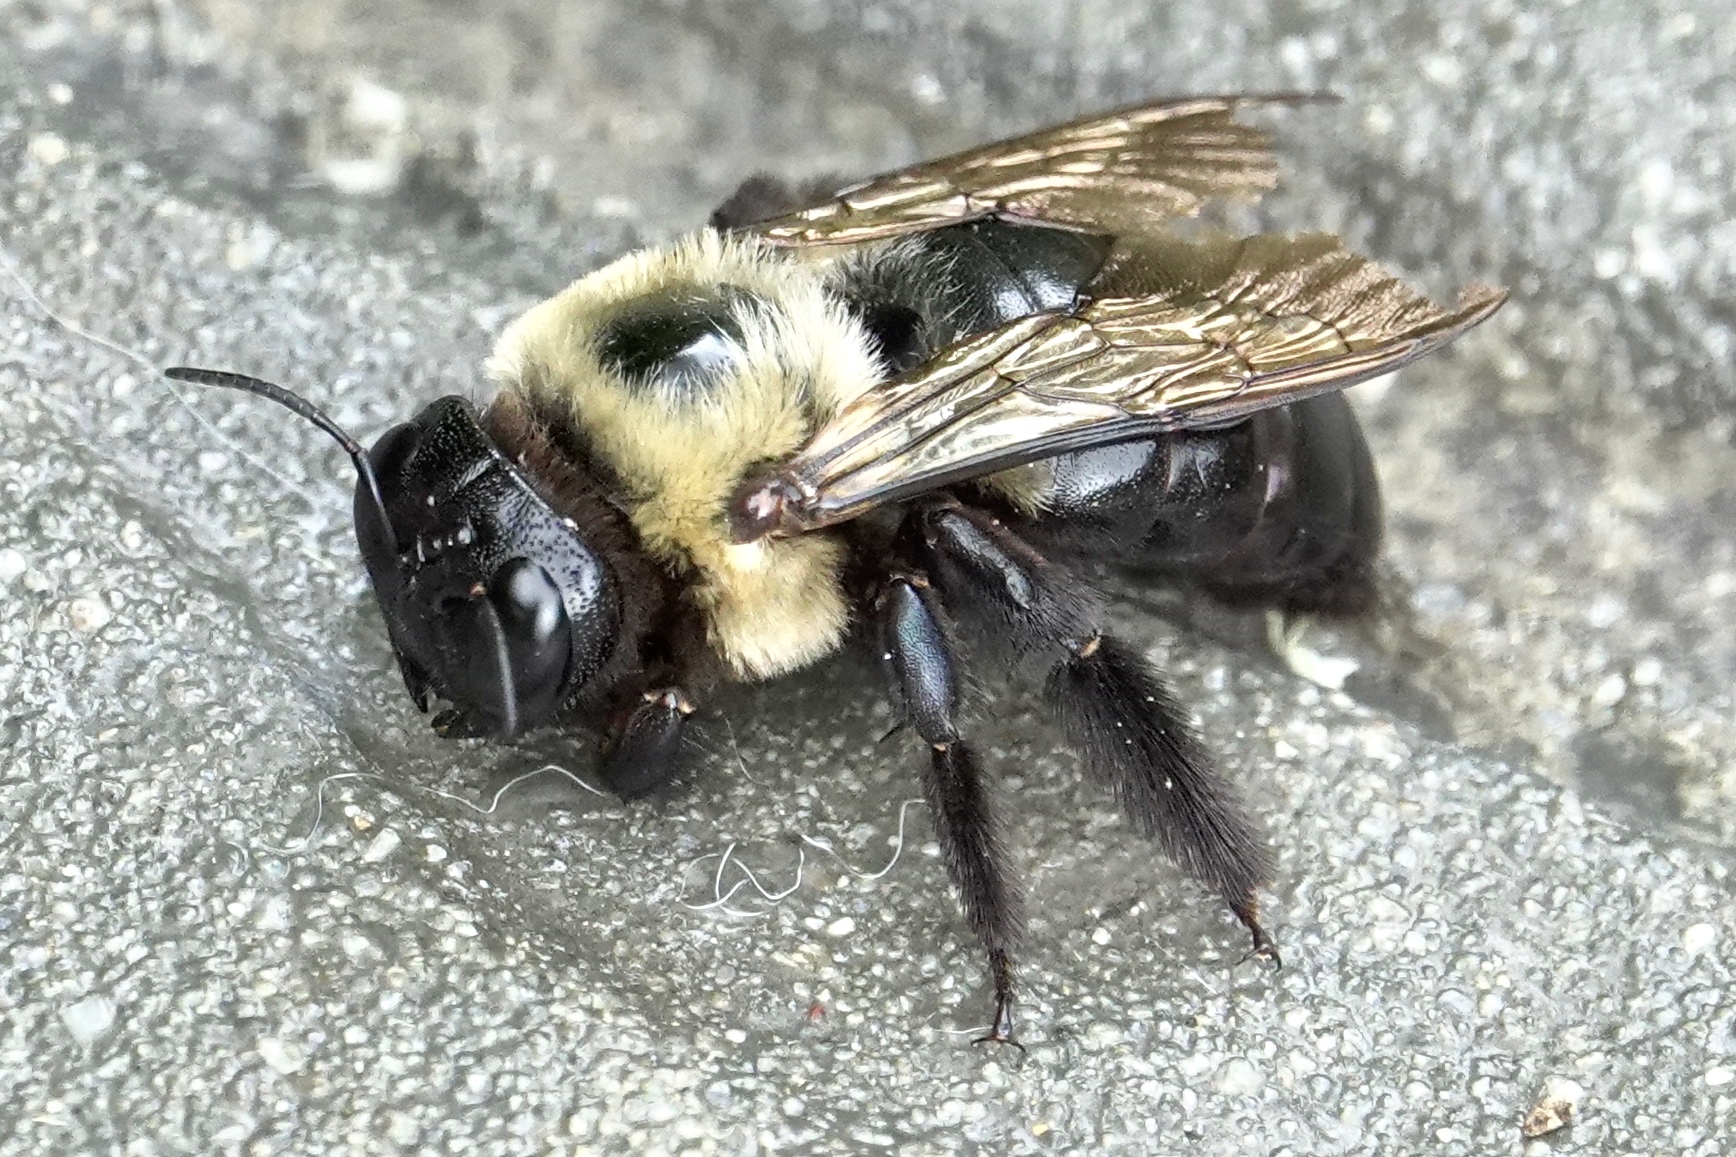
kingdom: Animalia
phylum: Arthropoda
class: Insecta
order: Hymenoptera
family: Apidae
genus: Xylocopa
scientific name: Xylocopa virginica
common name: Carpenter bee
